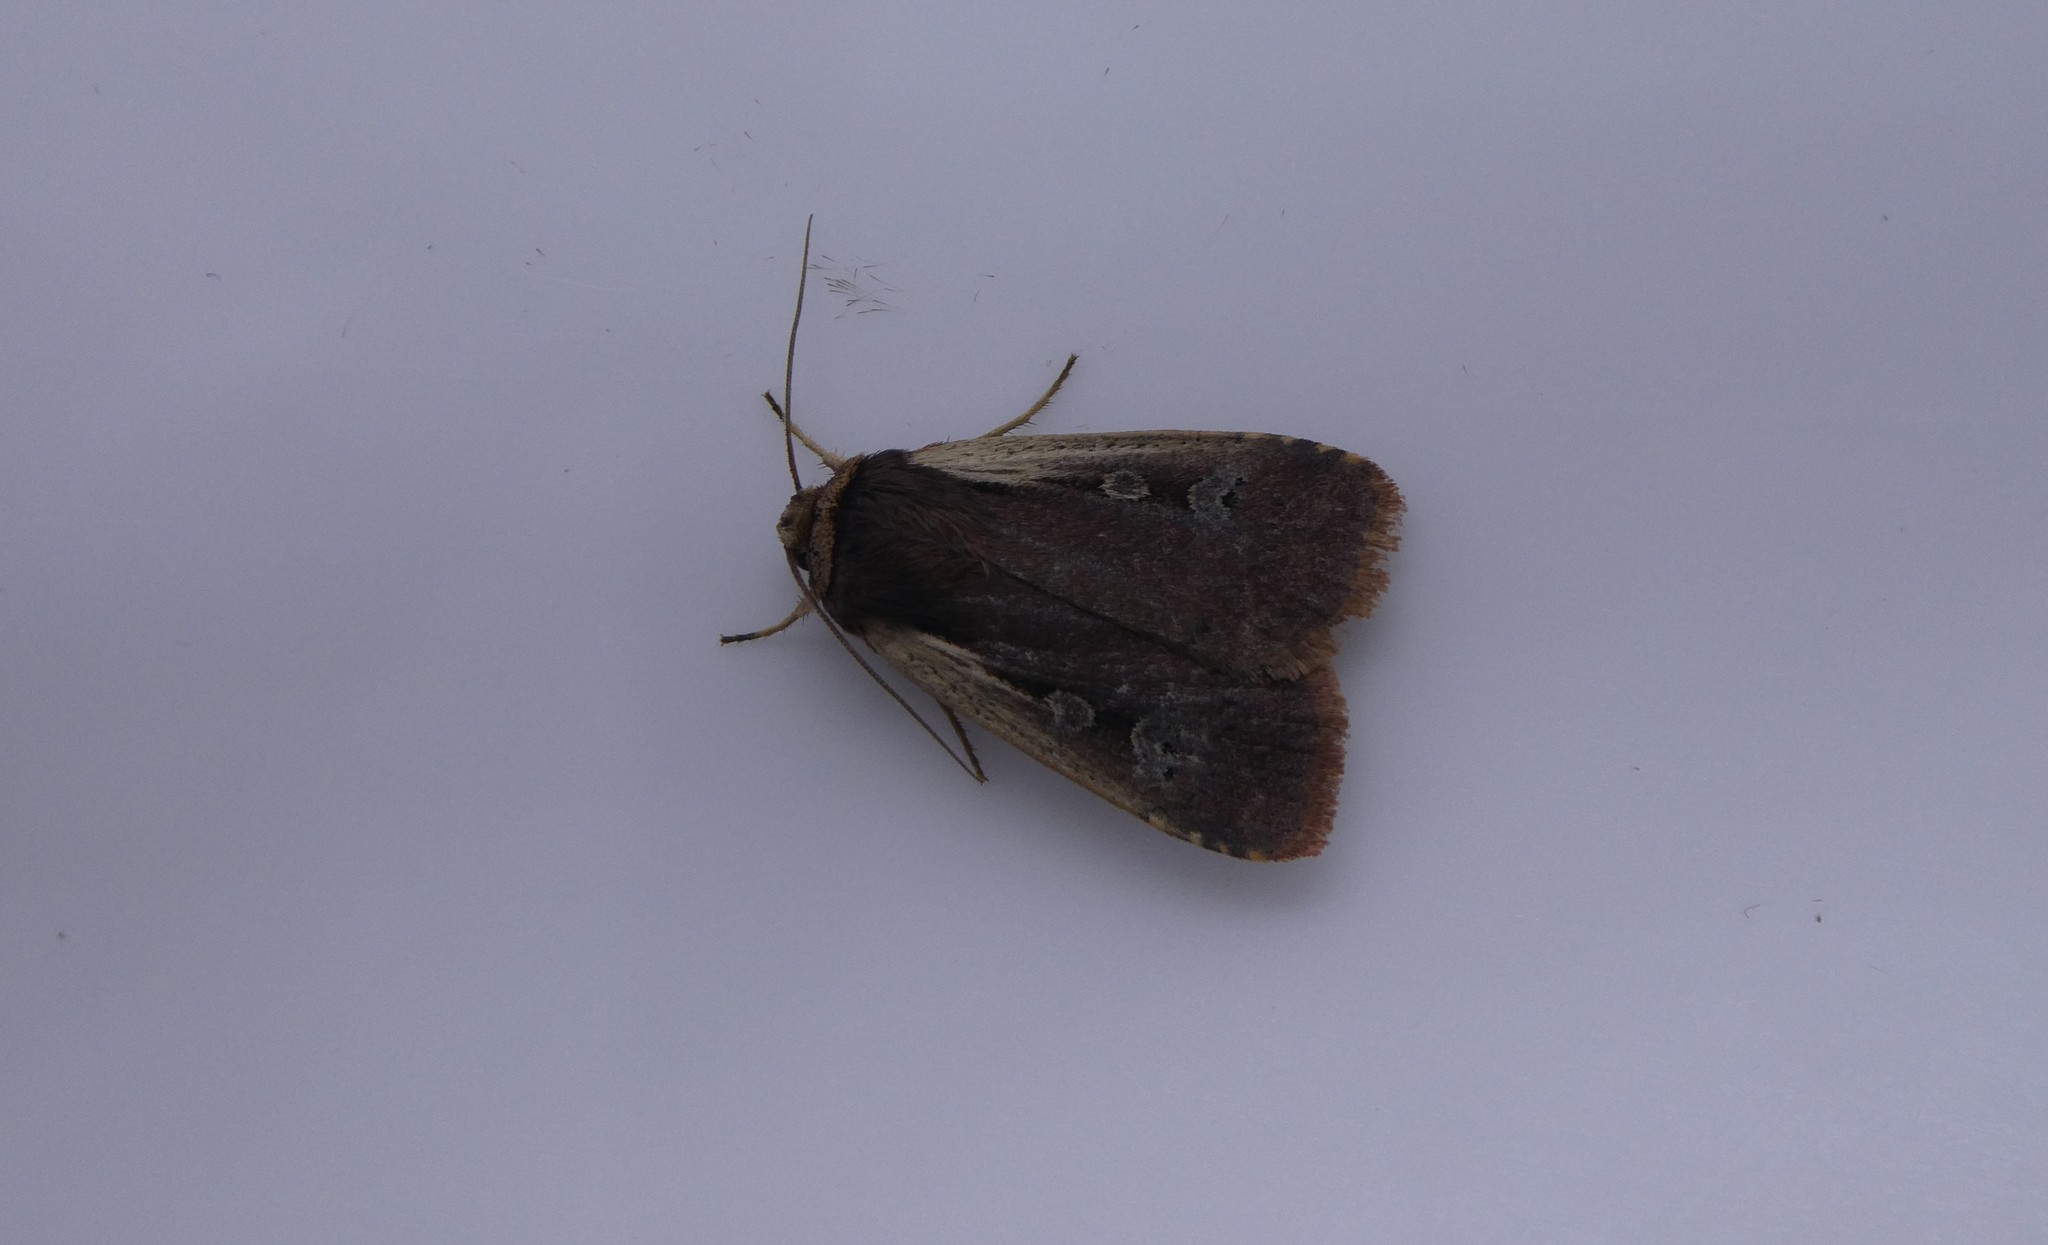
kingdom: Animalia
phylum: Arthropoda
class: Insecta
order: Lepidoptera
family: Noctuidae
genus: Ochropleura
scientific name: Ochropleura implecta
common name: Flame-shouldered dart
